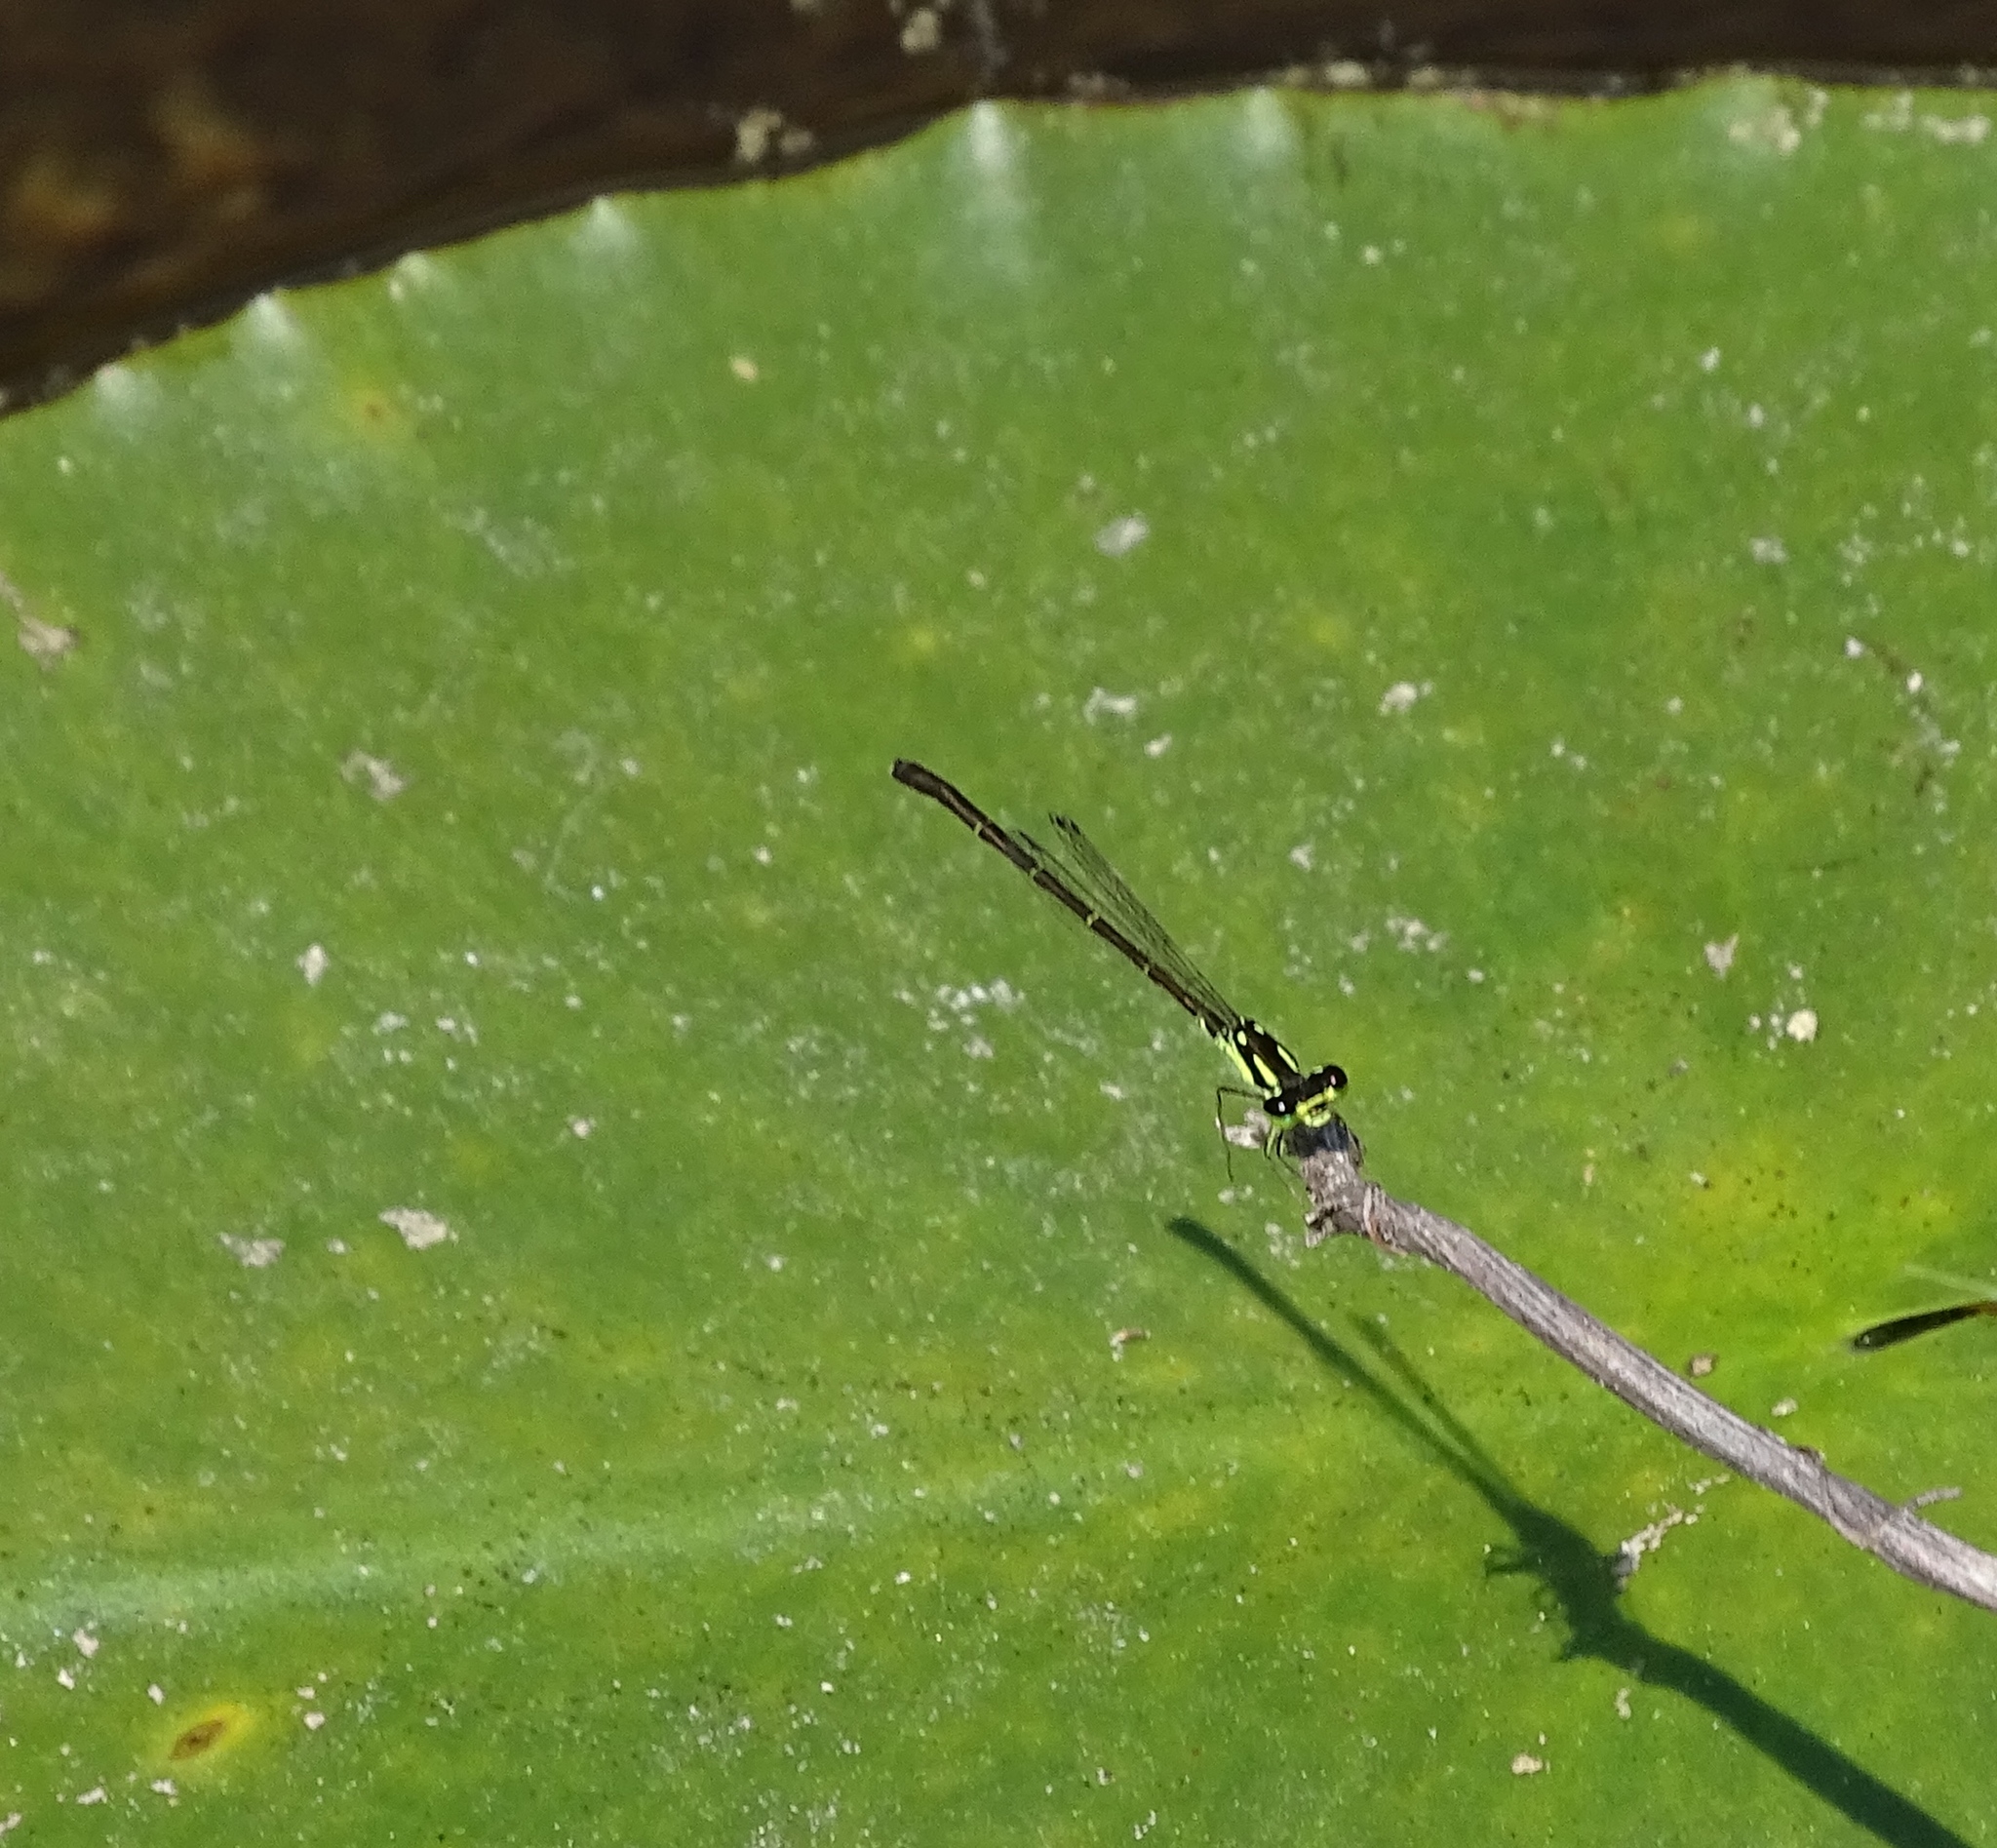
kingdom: Animalia
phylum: Arthropoda
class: Insecta
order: Odonata
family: Coenagrionidae
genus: Ischnura
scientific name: Ischnura posita
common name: Fragile forktail
